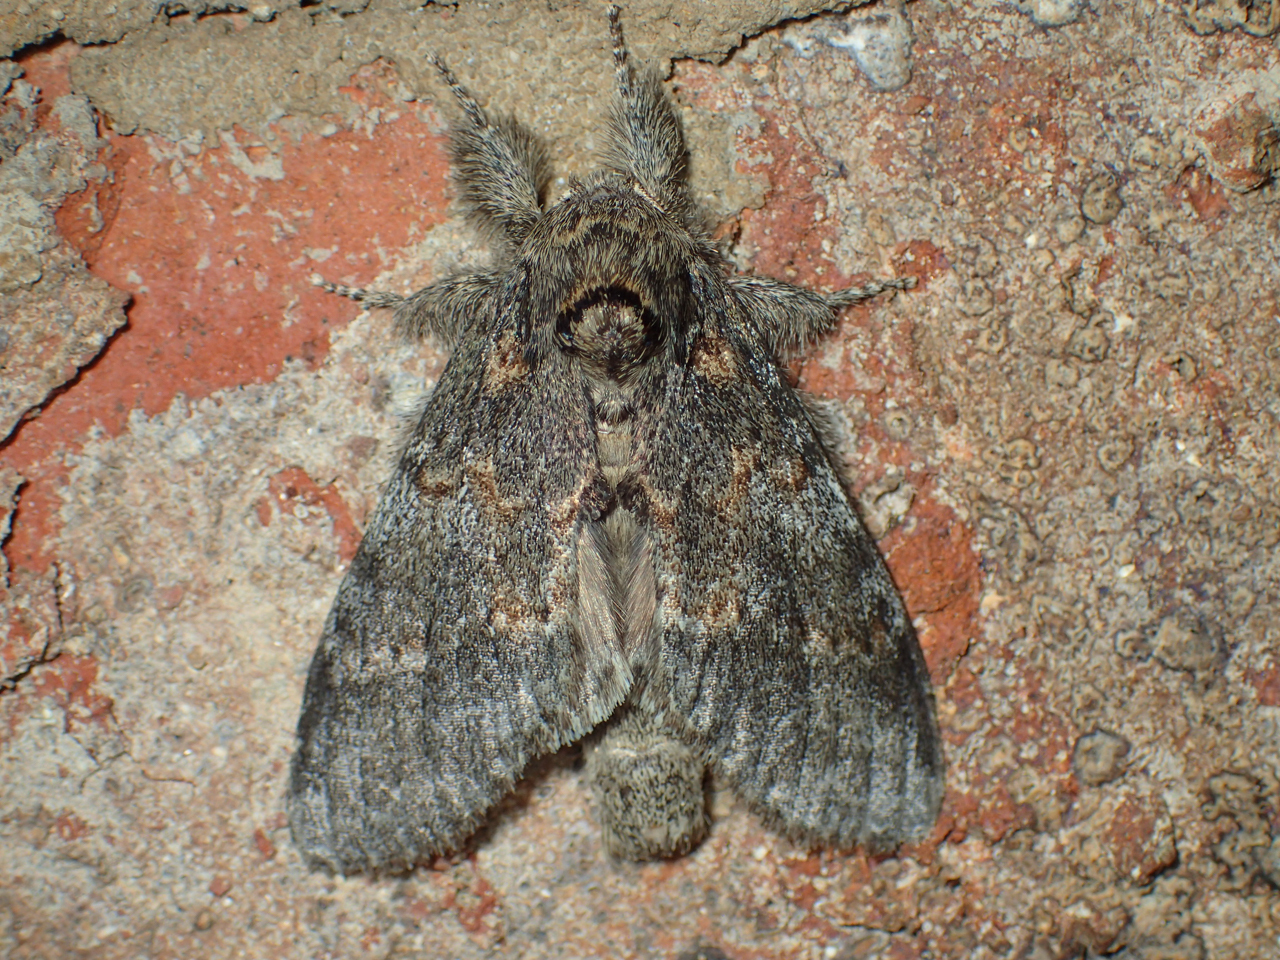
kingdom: Animalia
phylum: Arthropoda
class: Insecta
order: Lepidoptera
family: Notodontidae
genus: Peridea
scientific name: Peridea angulosa
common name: Angulose prominent
